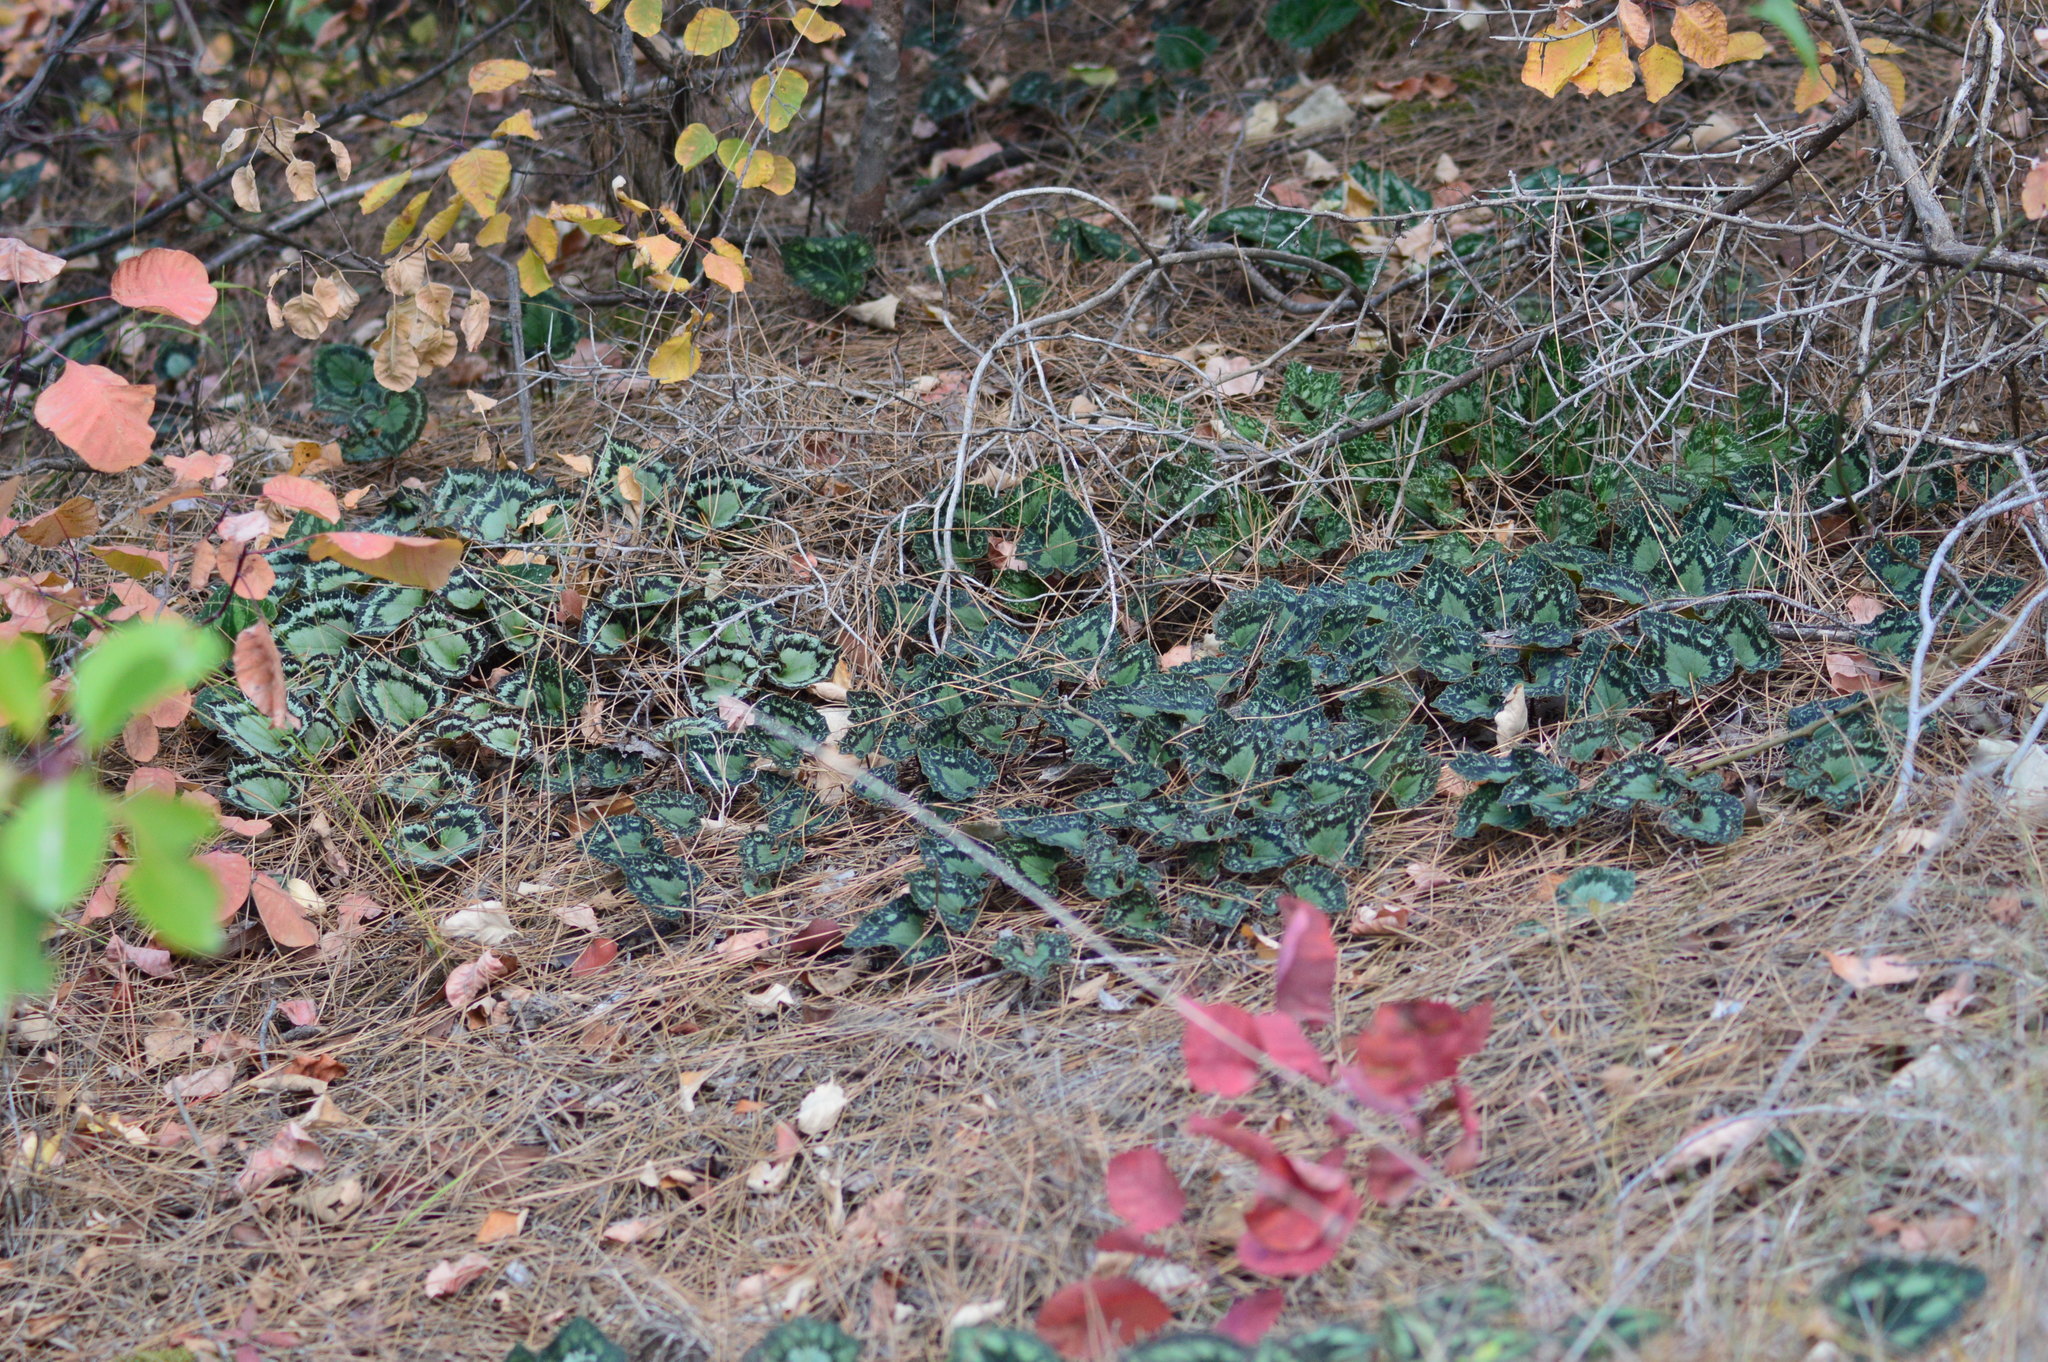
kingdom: Plantae
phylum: Tracheophyta
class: Magnoliopsida
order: Ericales
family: Primulaceae
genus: Cyclamen
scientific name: Cyclamen graecum
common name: Greek cyclamen
